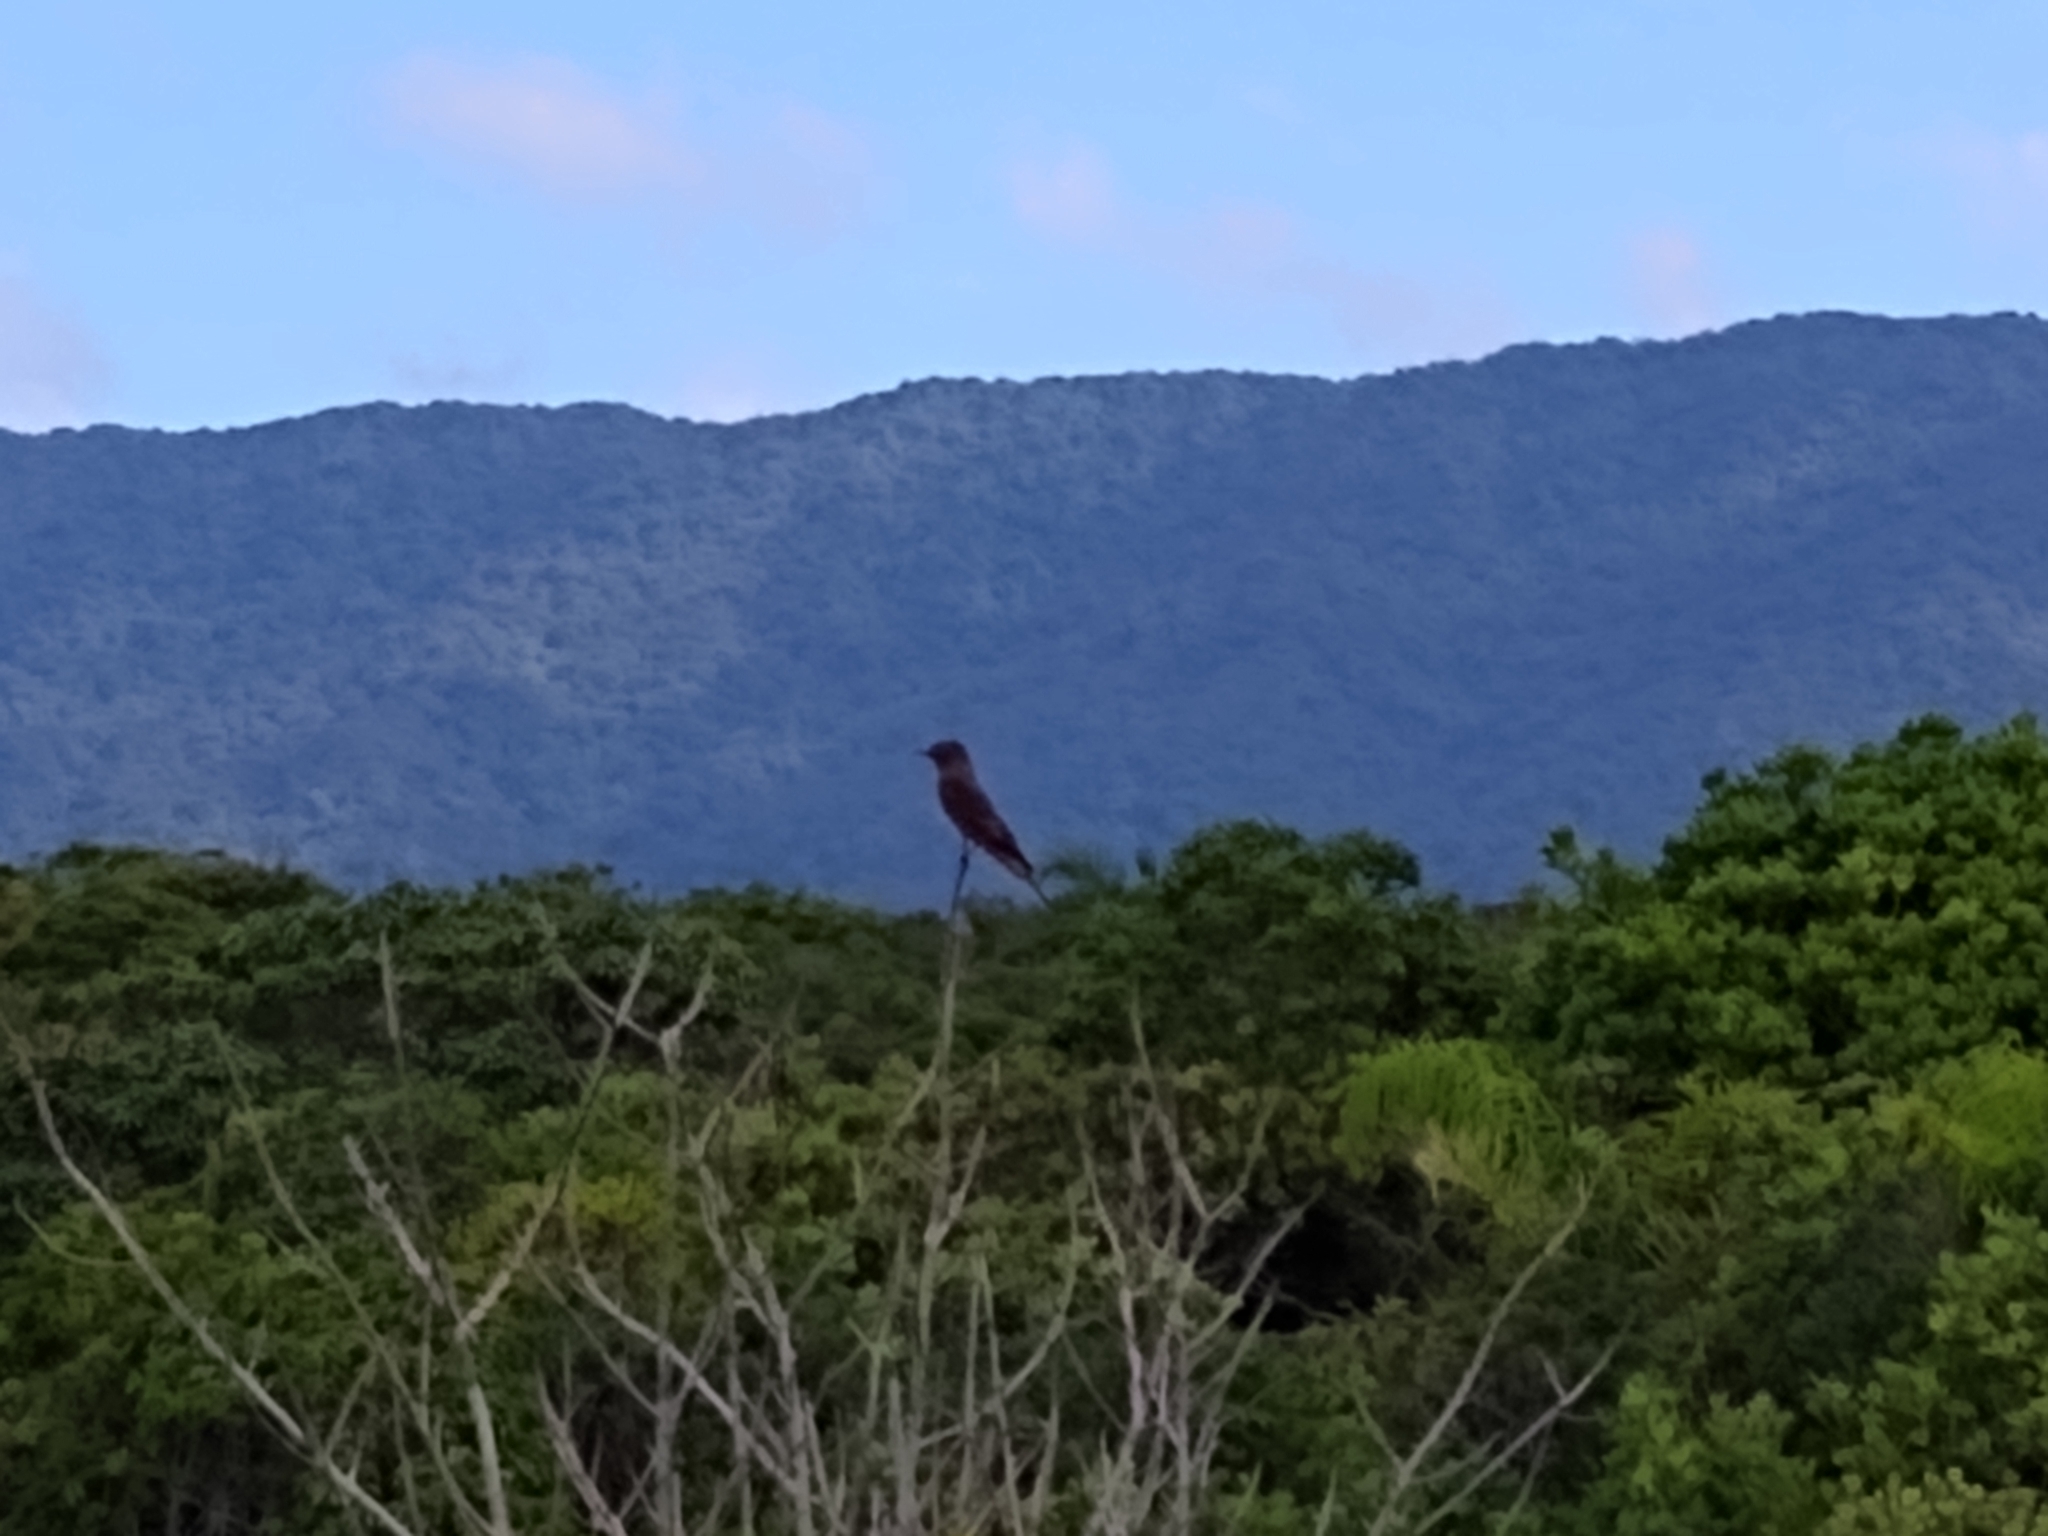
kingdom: Animalia
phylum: Chordata
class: Aves
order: Passeriformes
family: Tyrannidae
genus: Hirundinea
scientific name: Hirundinea ferruginea
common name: Cliff flycatcher
